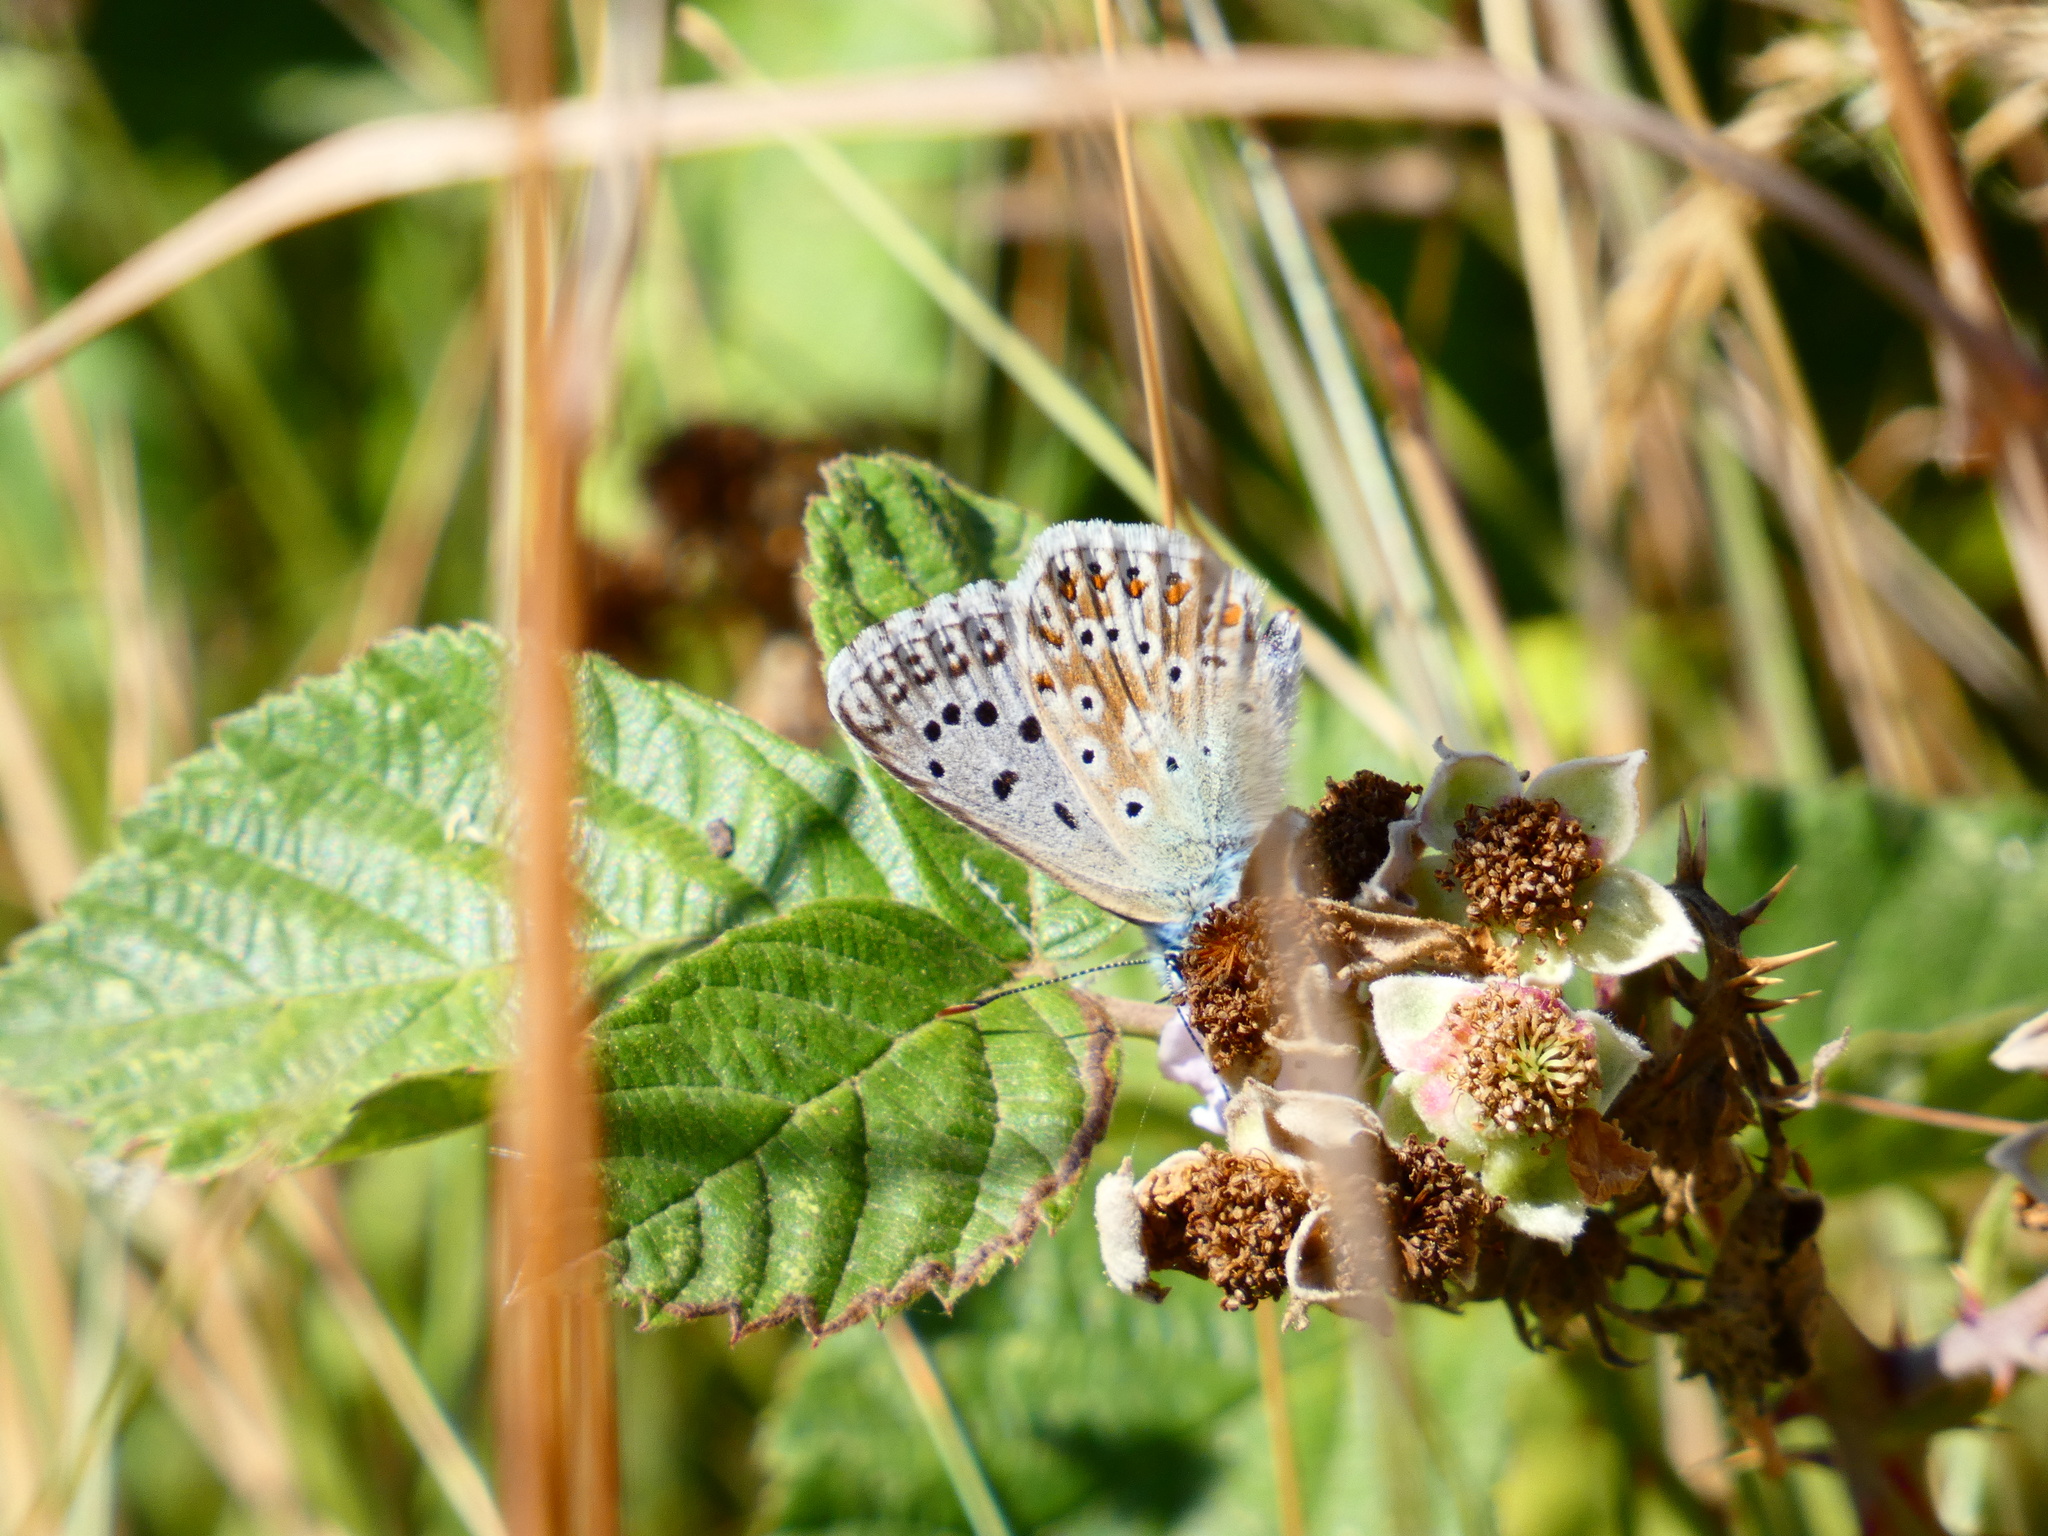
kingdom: Animalia
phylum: Arthropoda
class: Insecta
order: Lepidoptera
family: Lycaenidae
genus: Lysandra
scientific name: Lysandra coridon
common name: Chalkhill blue
